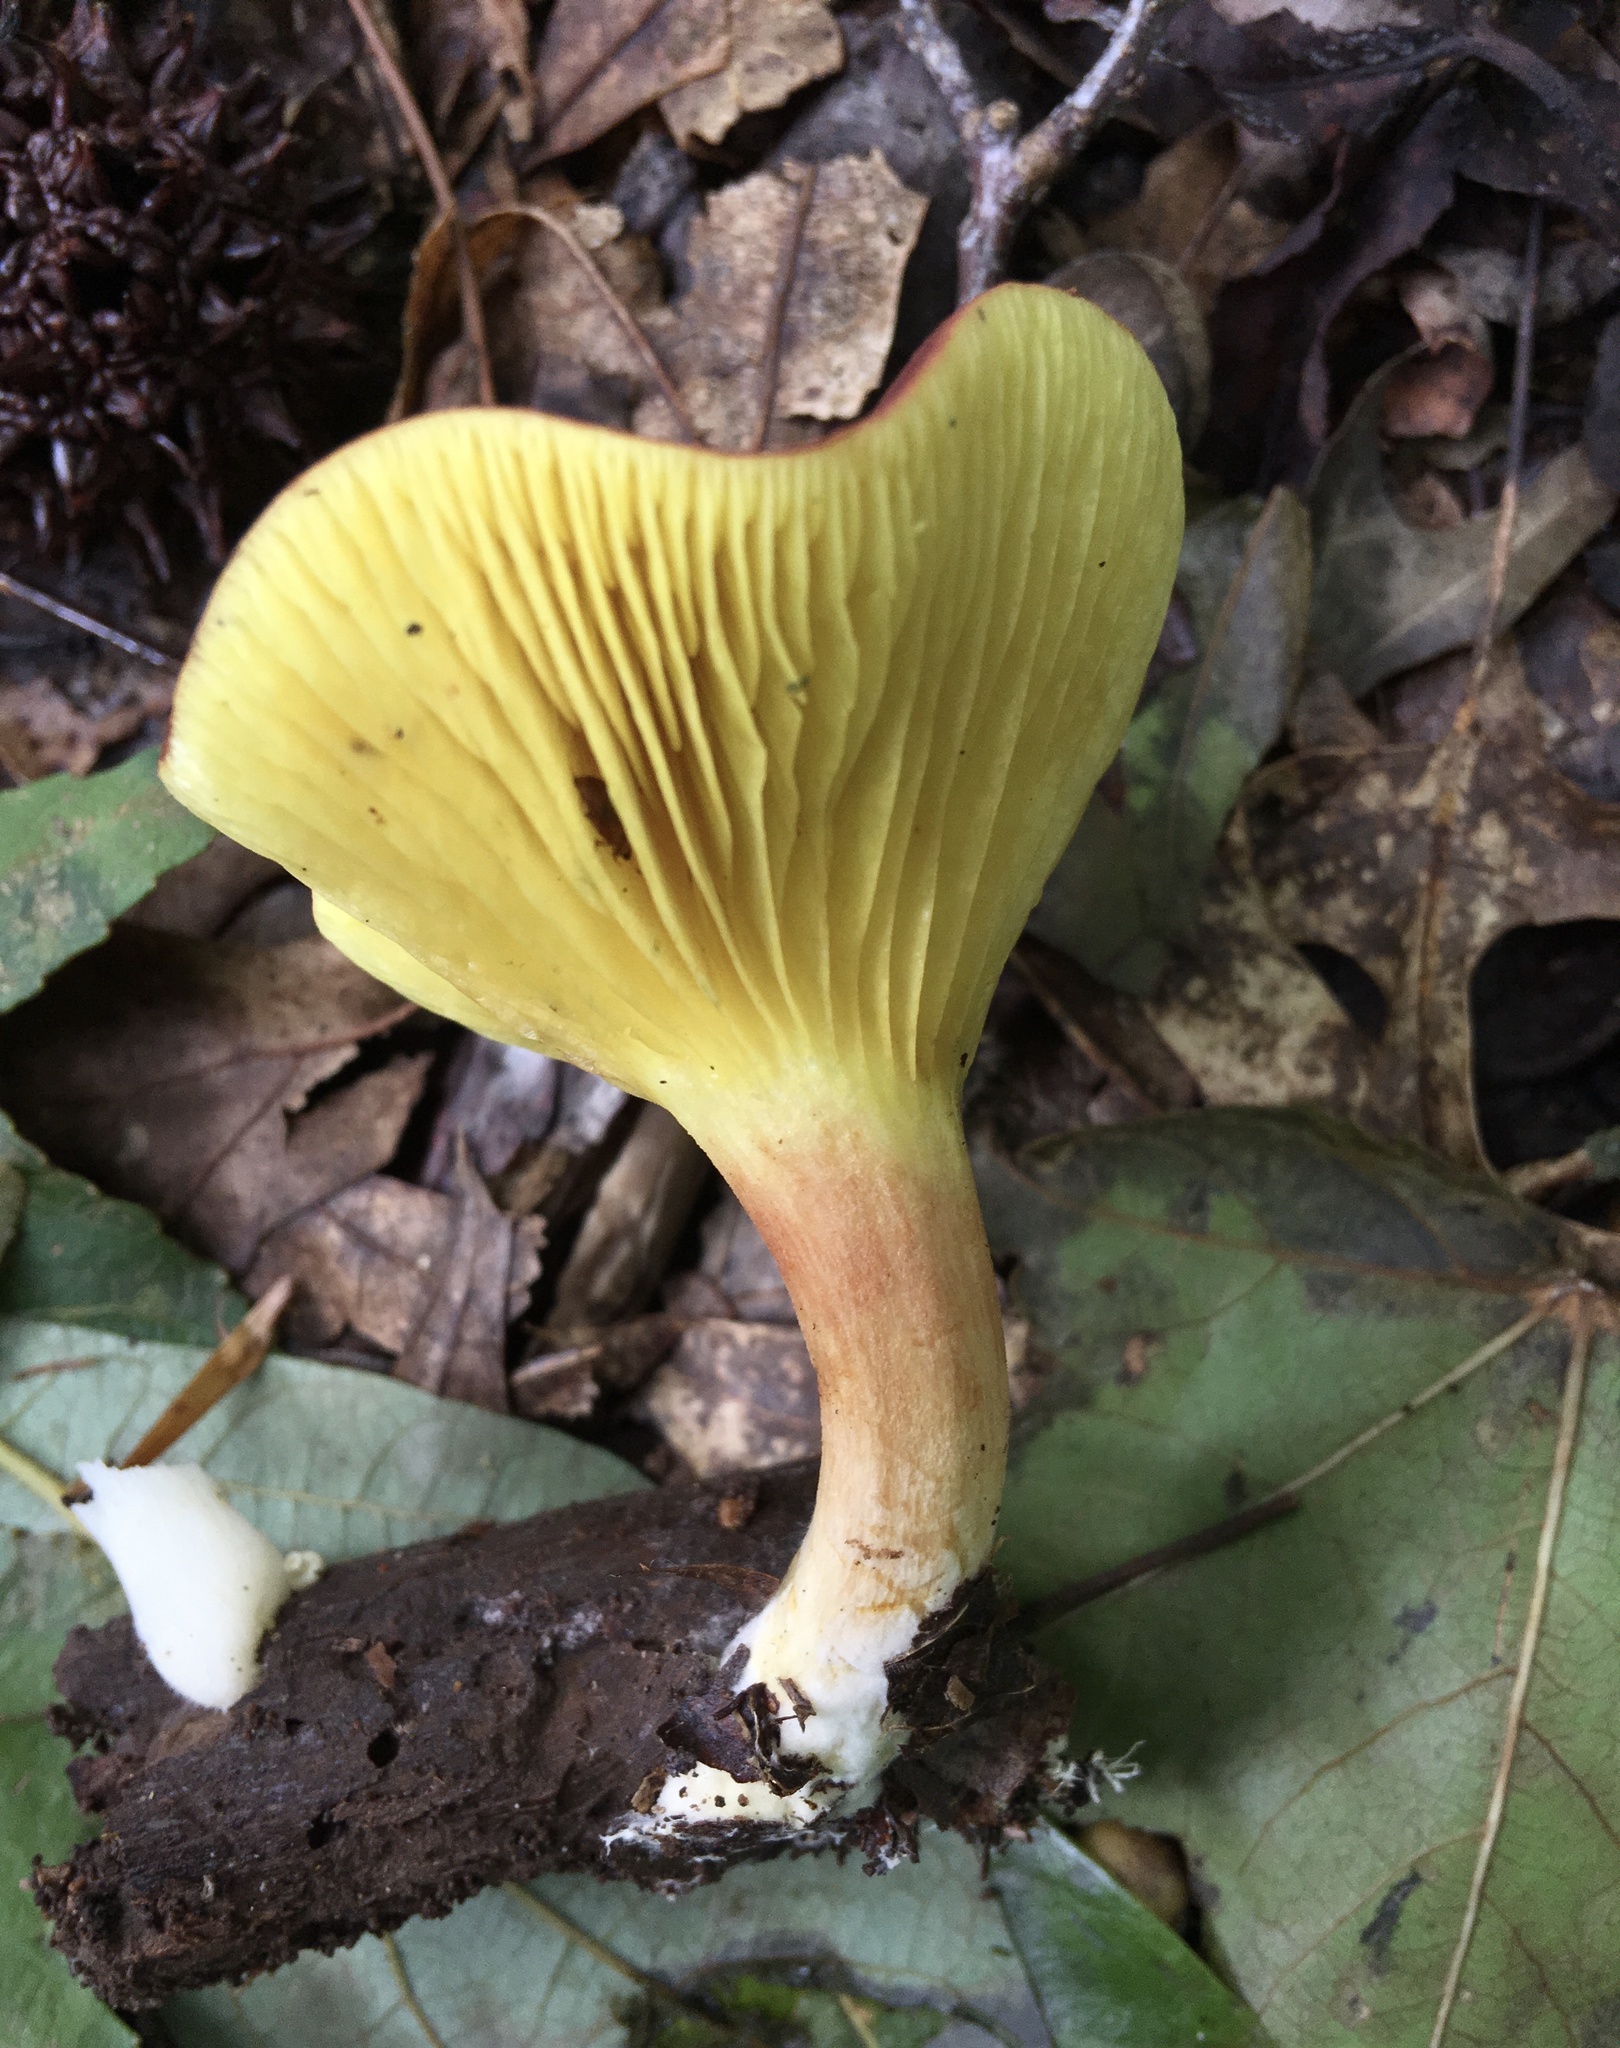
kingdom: Fungi
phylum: Basidiomycota
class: Agaricomycetes
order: Boletales
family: Boletaceae
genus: Phylloporus
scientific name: Phylloporus leucomycelinus
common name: Gilled bolete
